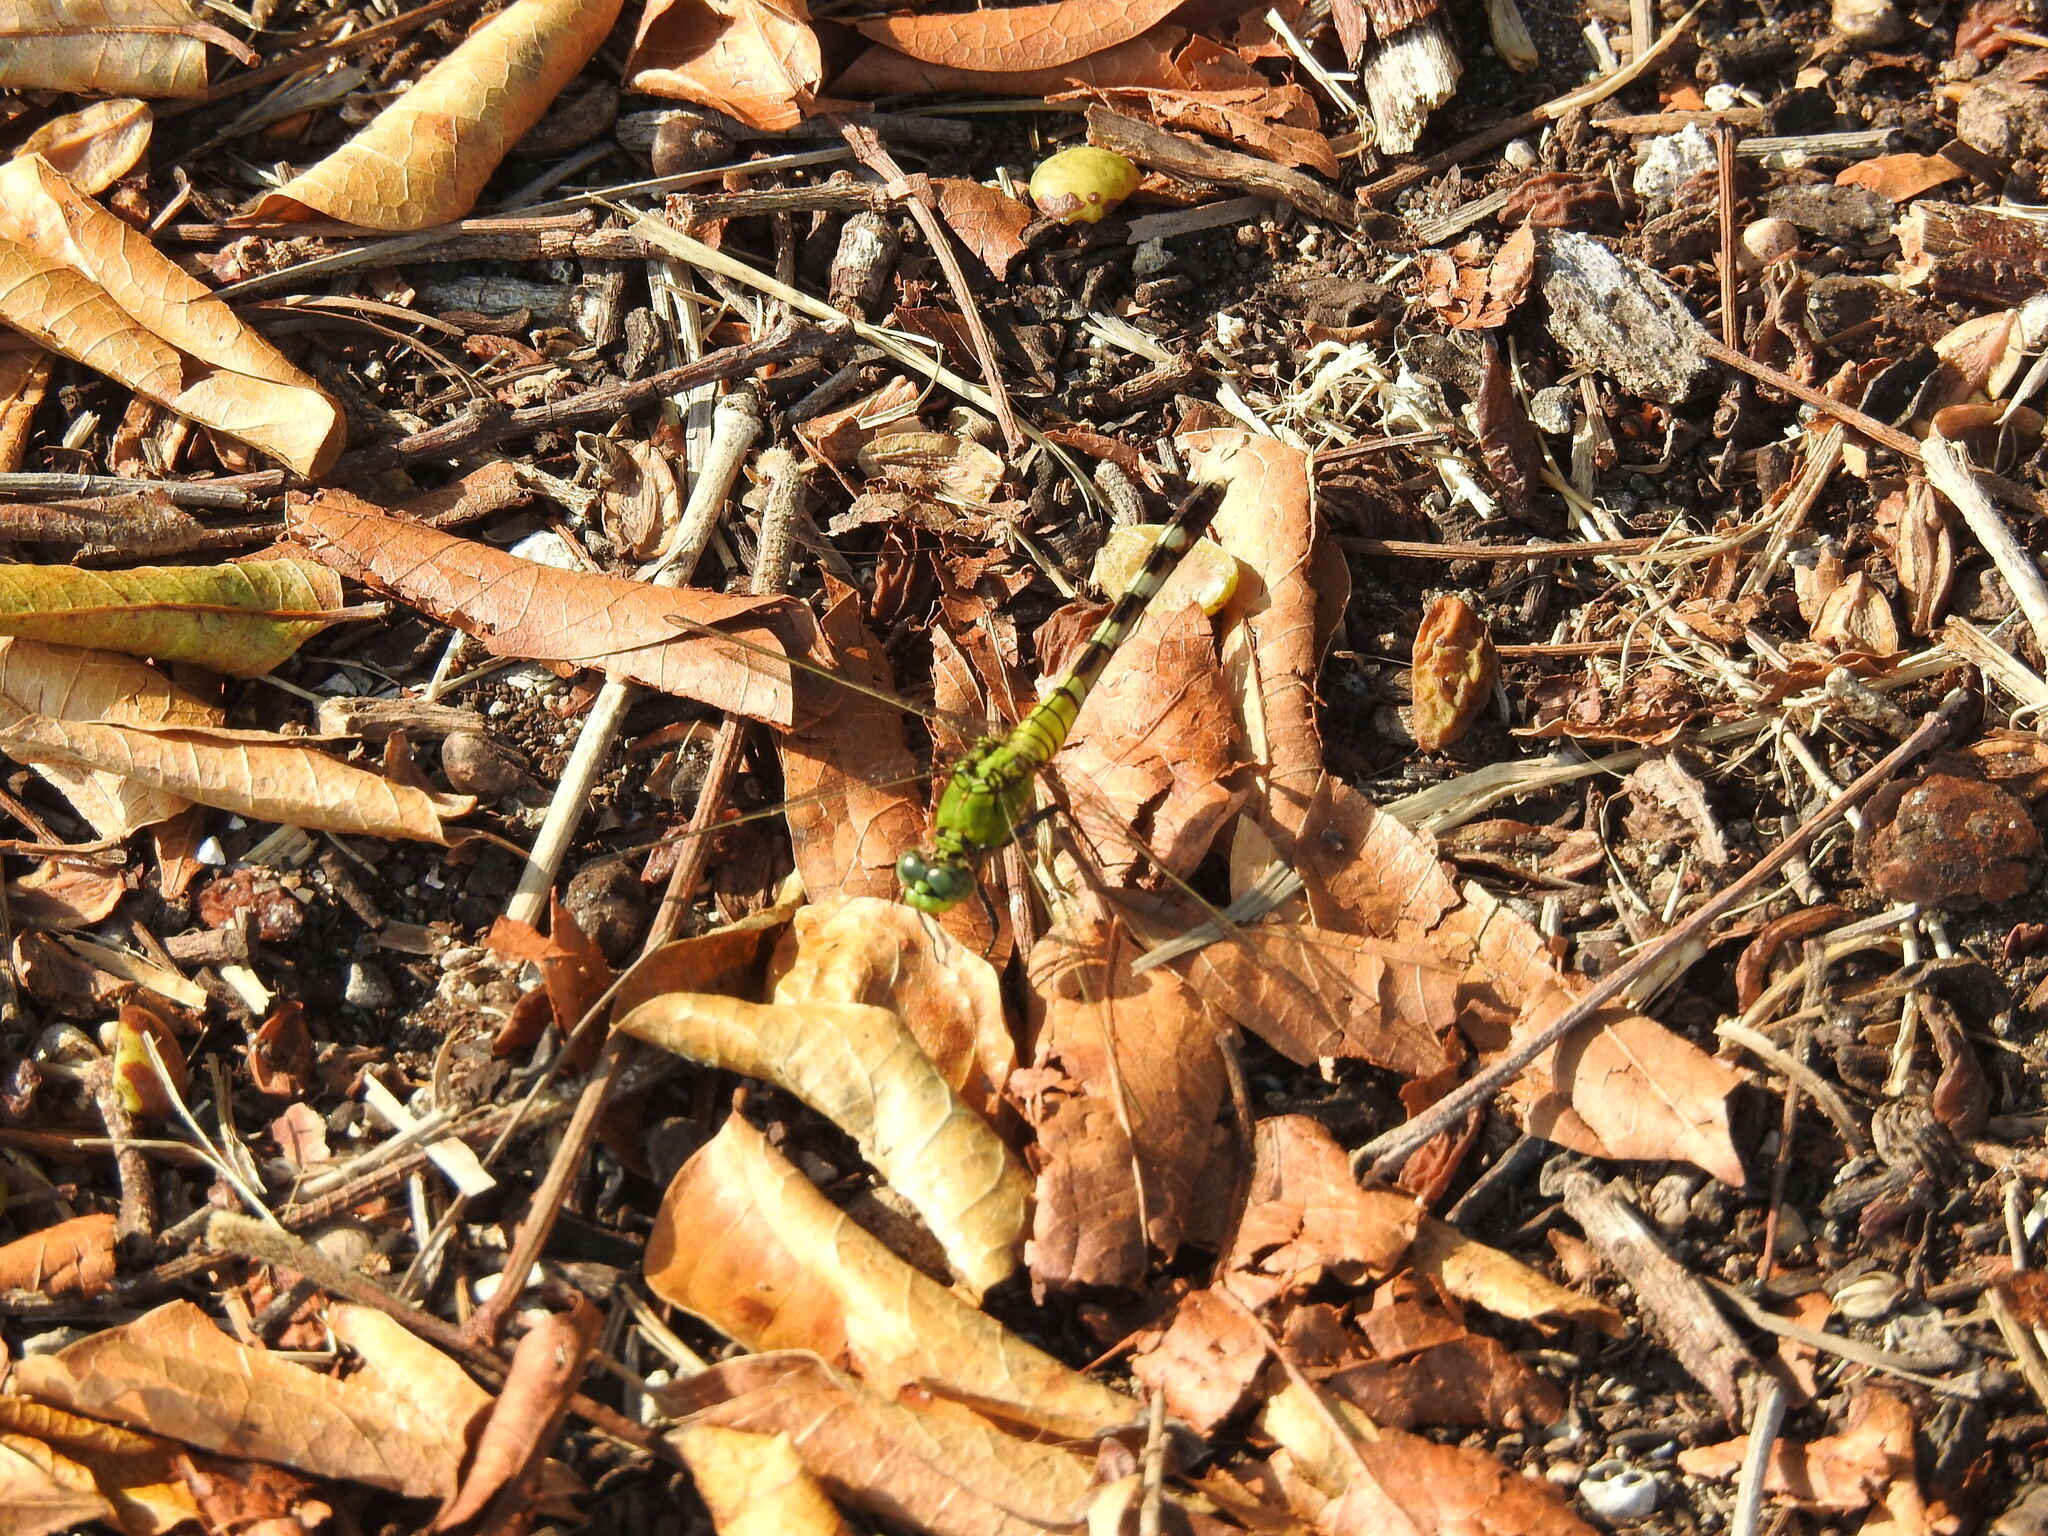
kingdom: Animalia
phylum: Arthropoda
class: Insecta
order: Odonata
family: Libellulidae
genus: Erythemis
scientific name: Erythemis simplicicollis
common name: Eastern pondhawk
